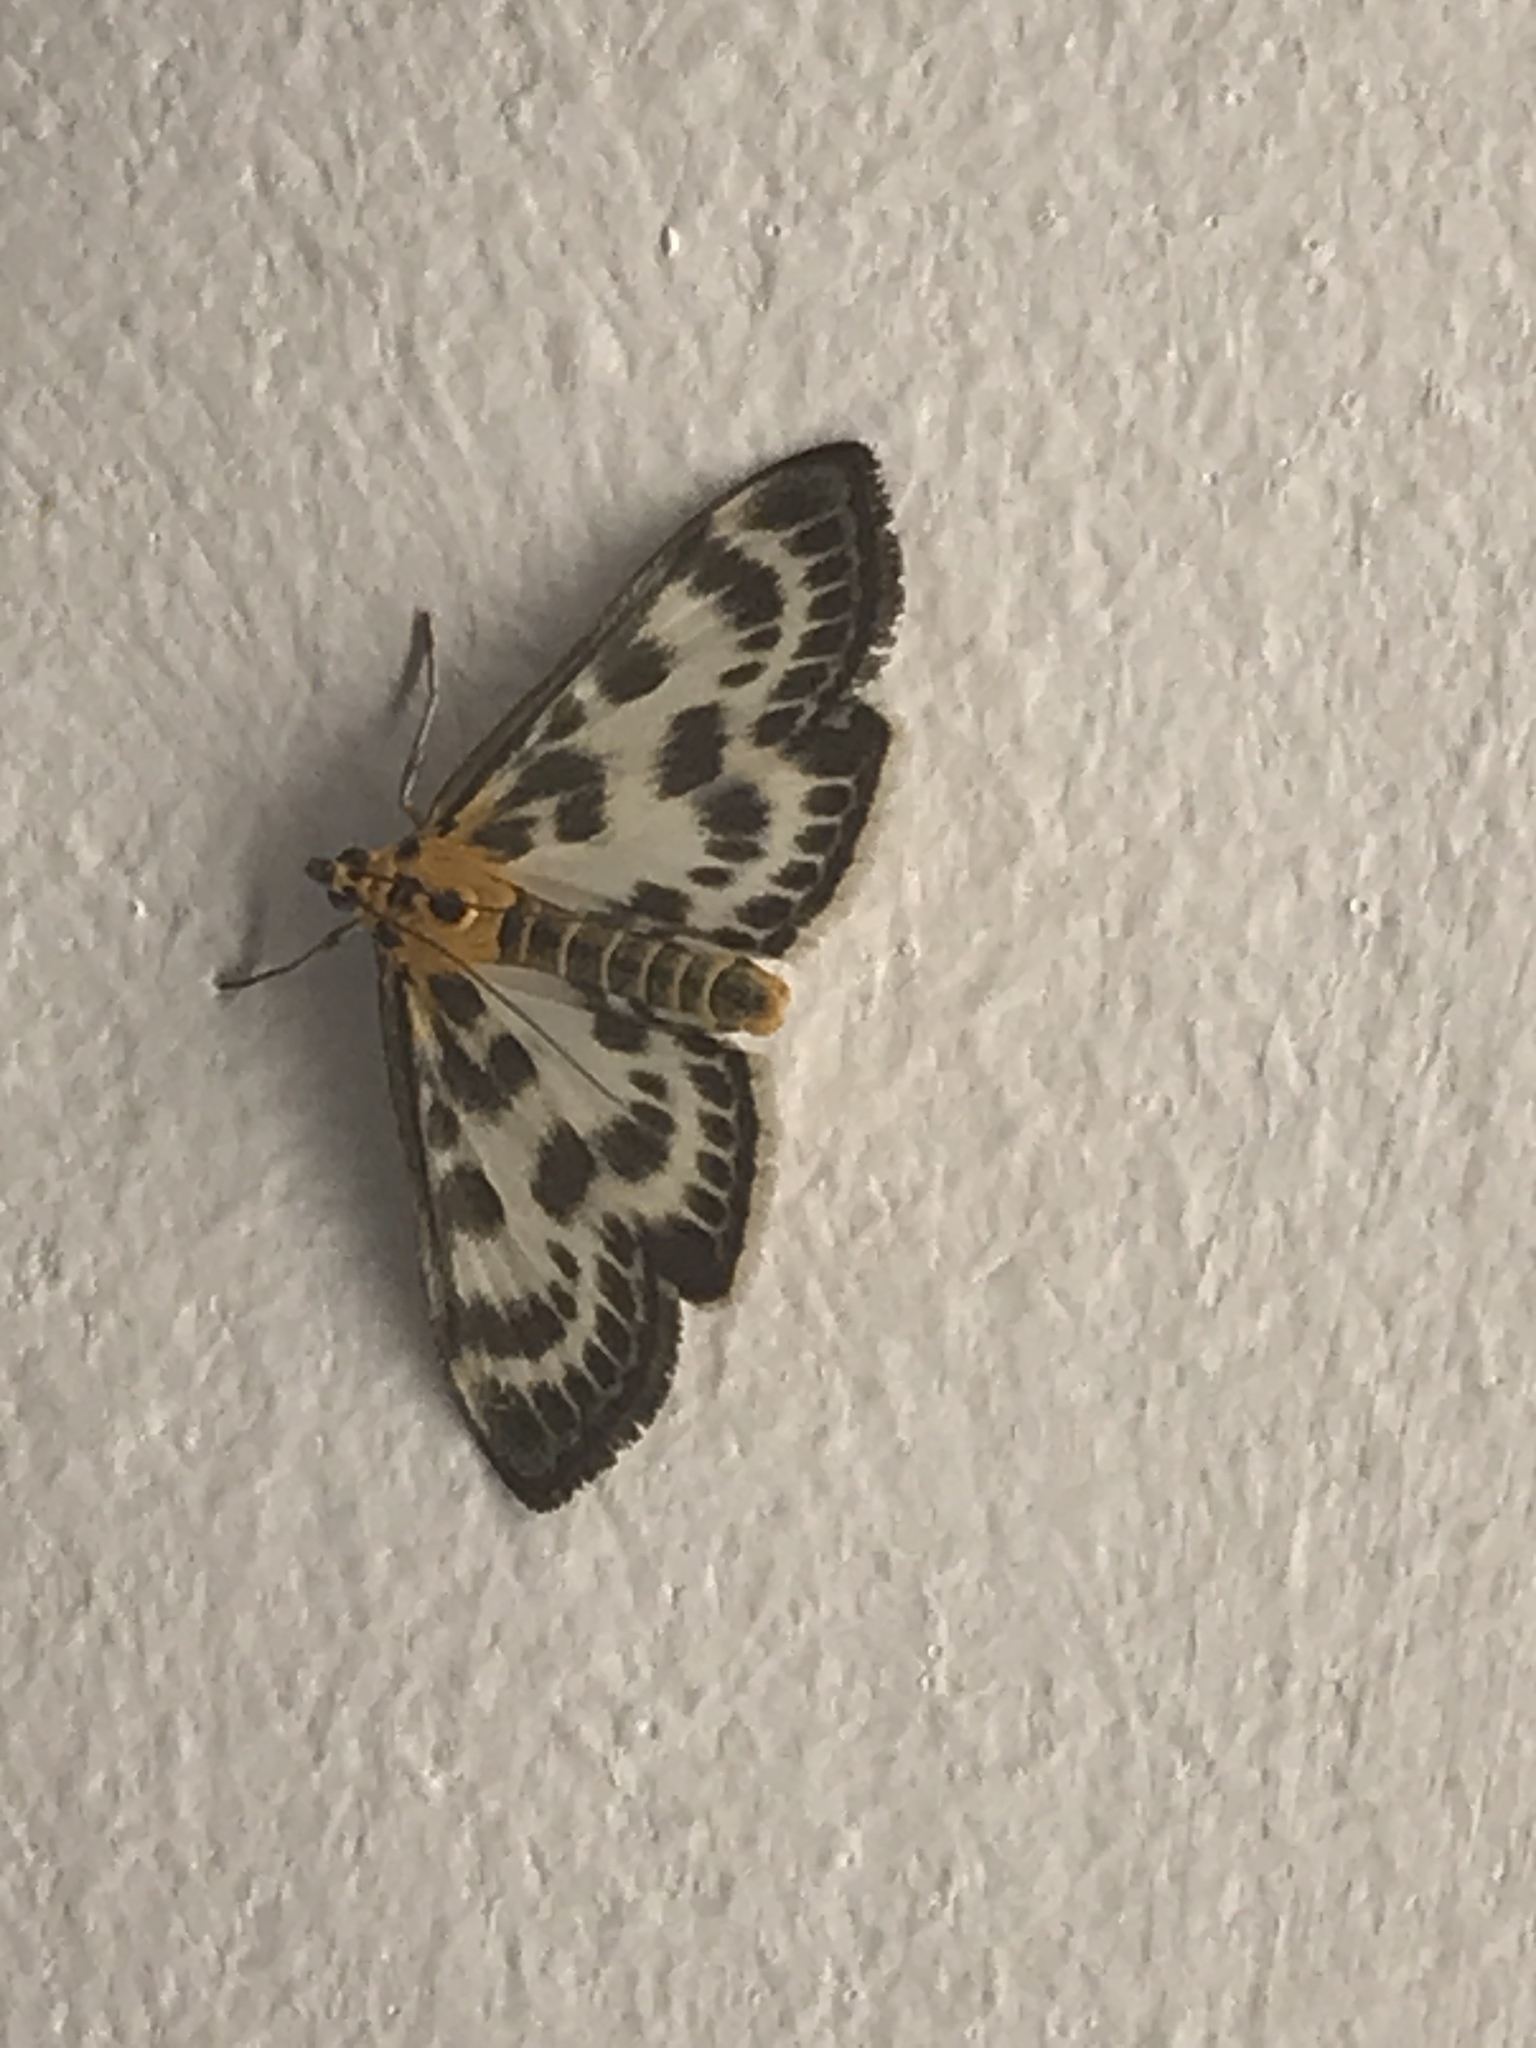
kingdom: Animalia
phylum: Arthropoda
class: Insecta
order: Lepidoptera
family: Crambidae
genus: Anania
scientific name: Anania hortulata
